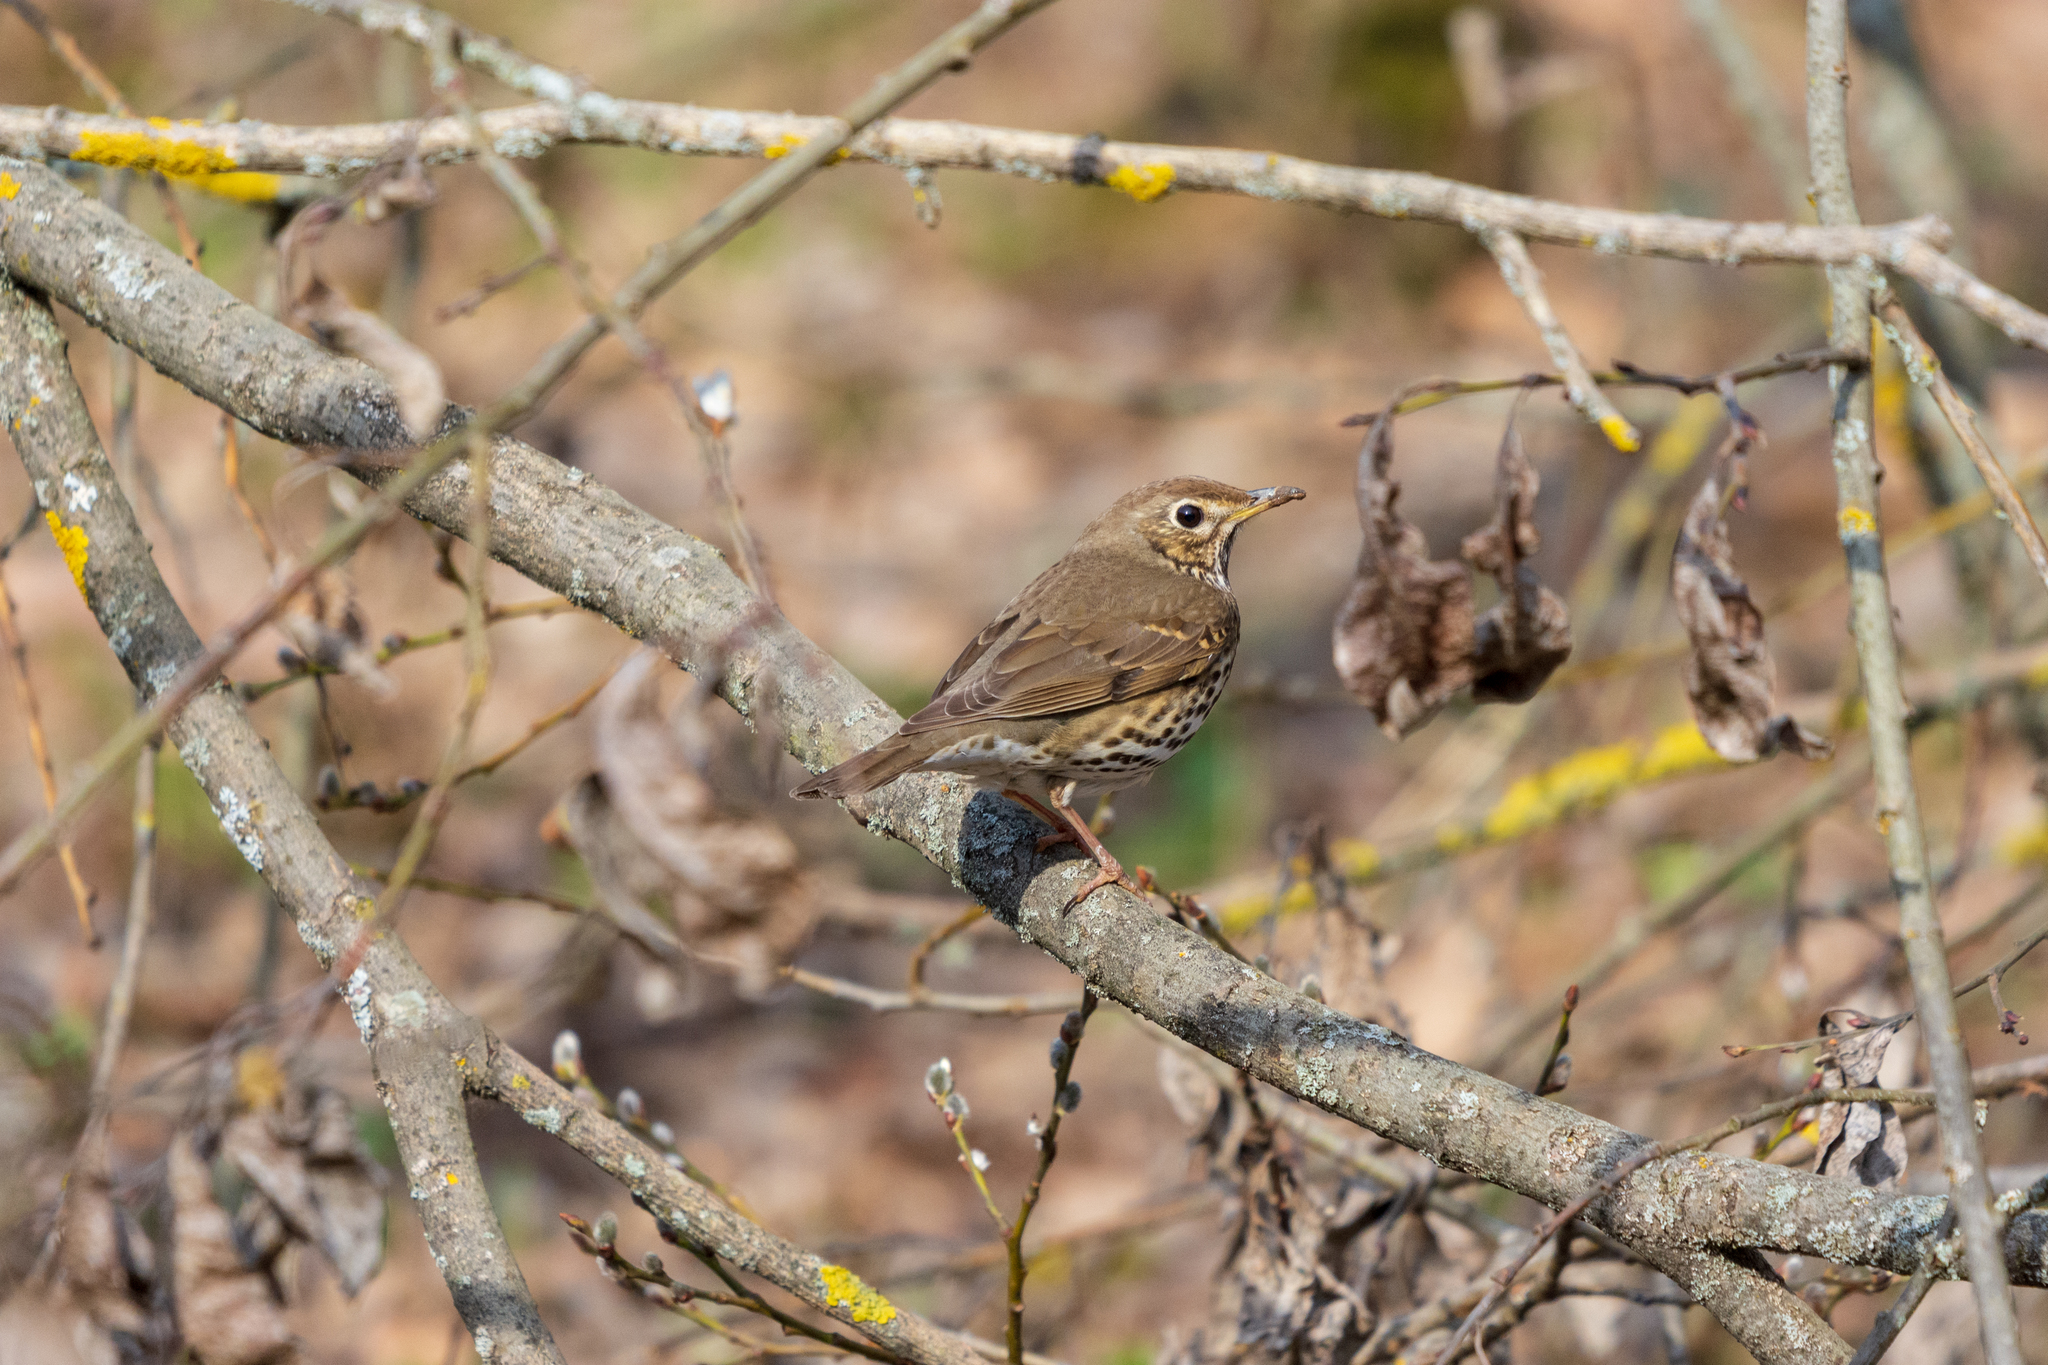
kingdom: Animalia
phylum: Chordata
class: Aves
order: Passeriformes
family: Turdidae
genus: Turdus
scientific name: Turdus philomelos
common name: Song thrush
